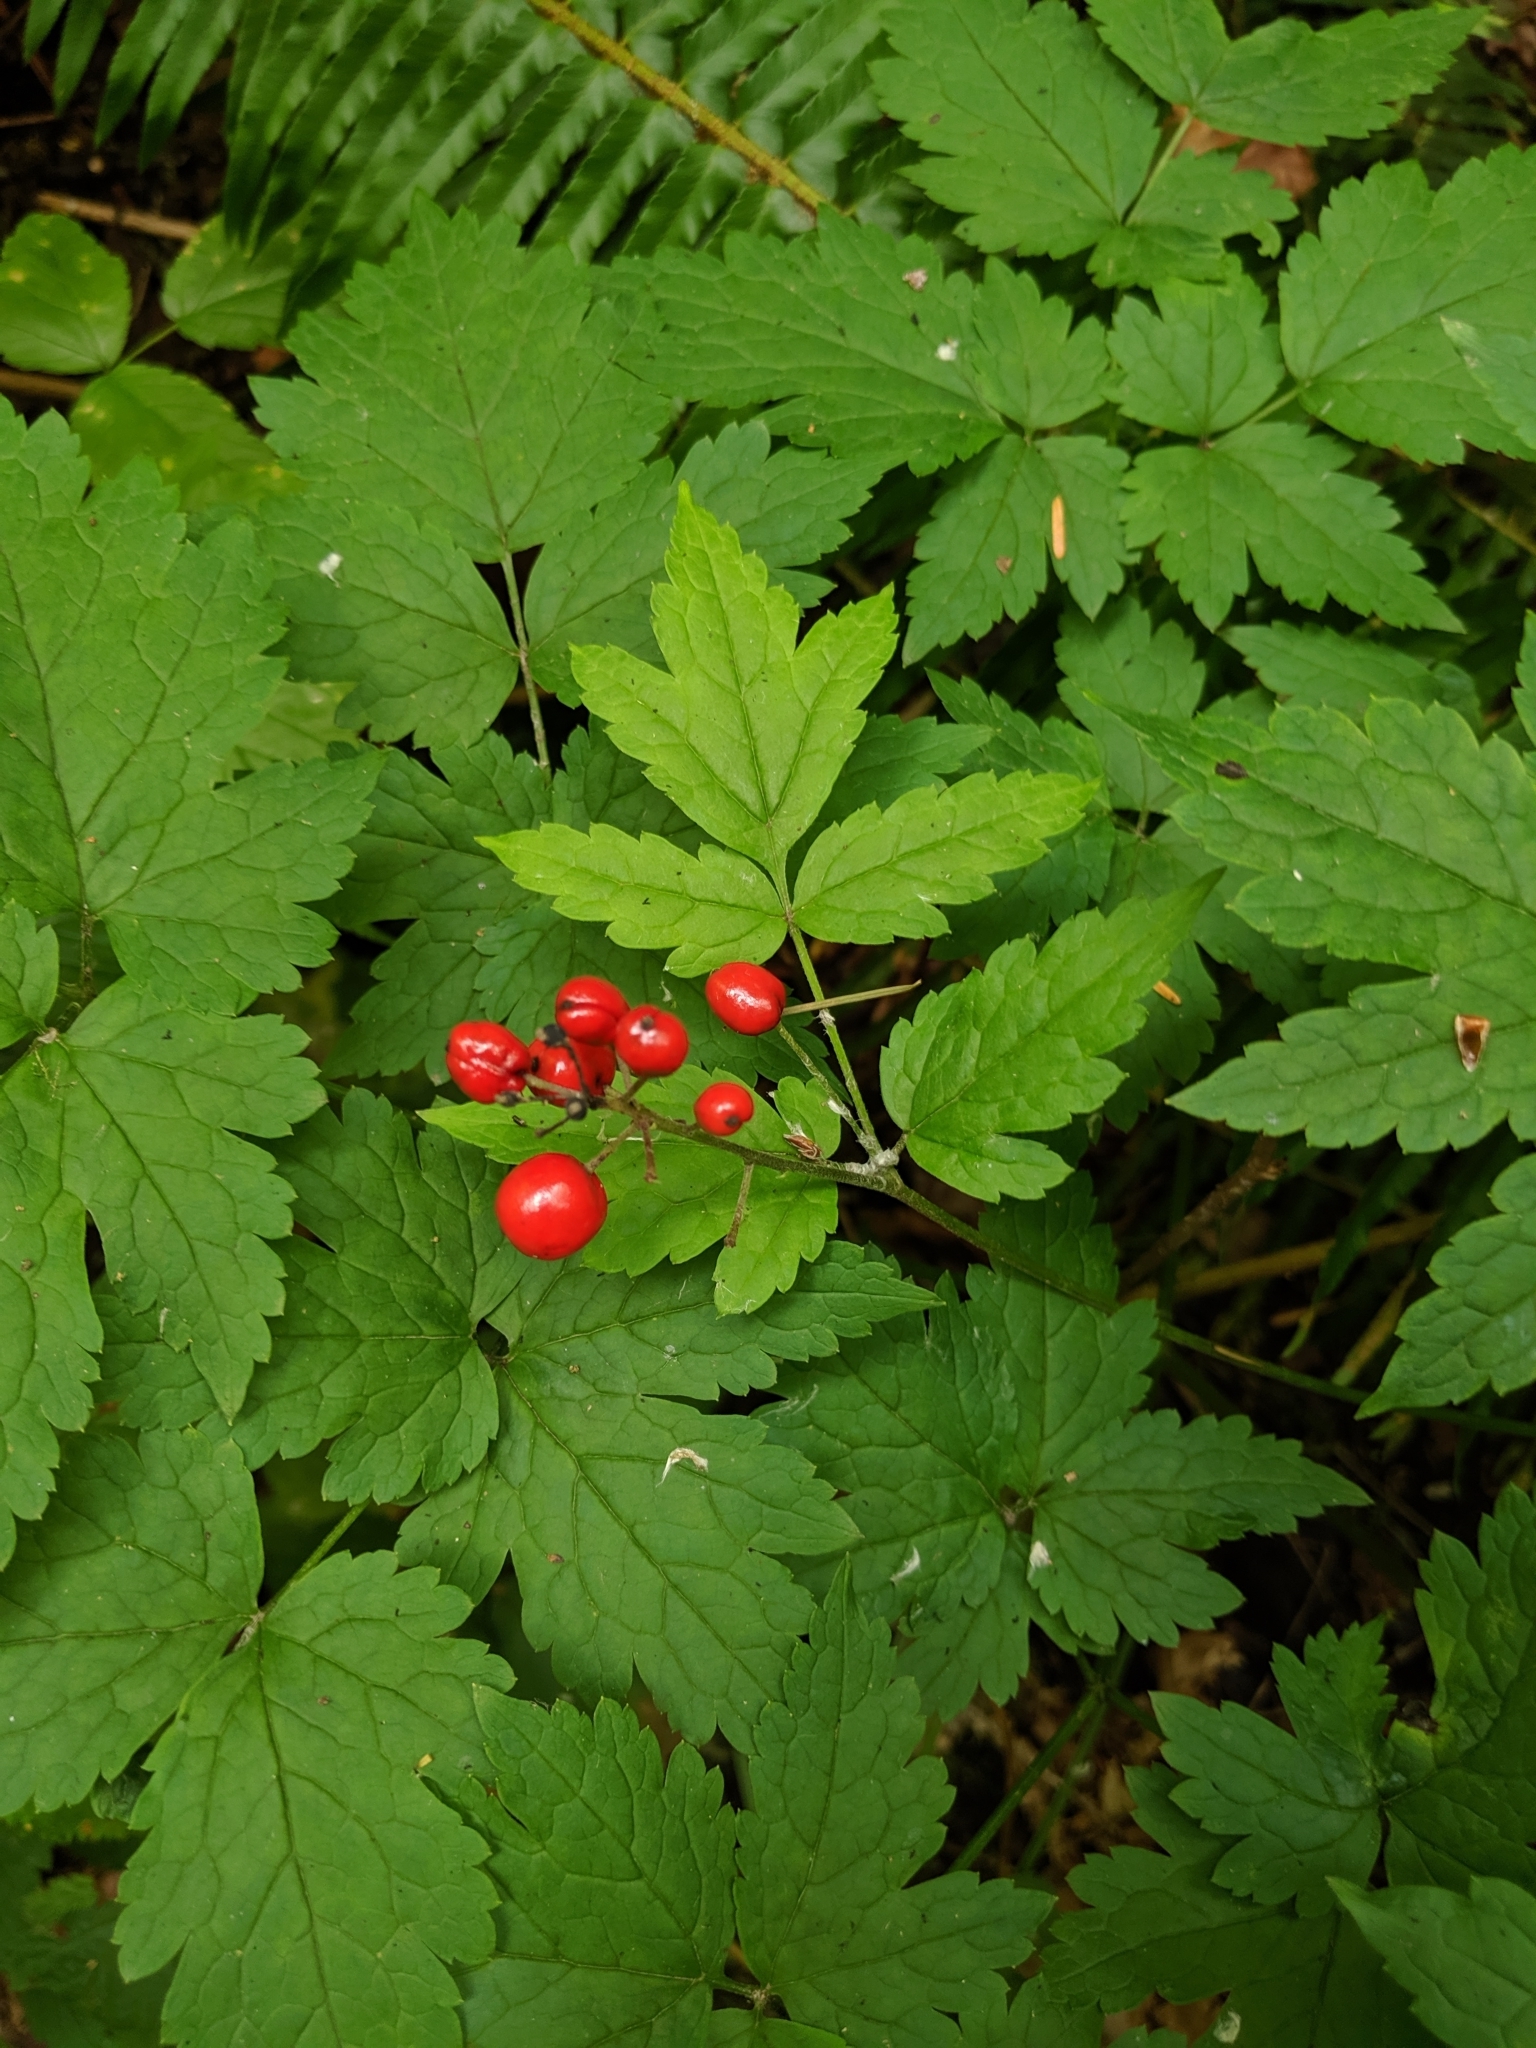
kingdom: Plantae
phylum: Tracheophyta
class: Magnoliopsida
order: Ranunculales
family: Ranunculaceae
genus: Actaea
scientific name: Actaea rubra
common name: Red baneberry
